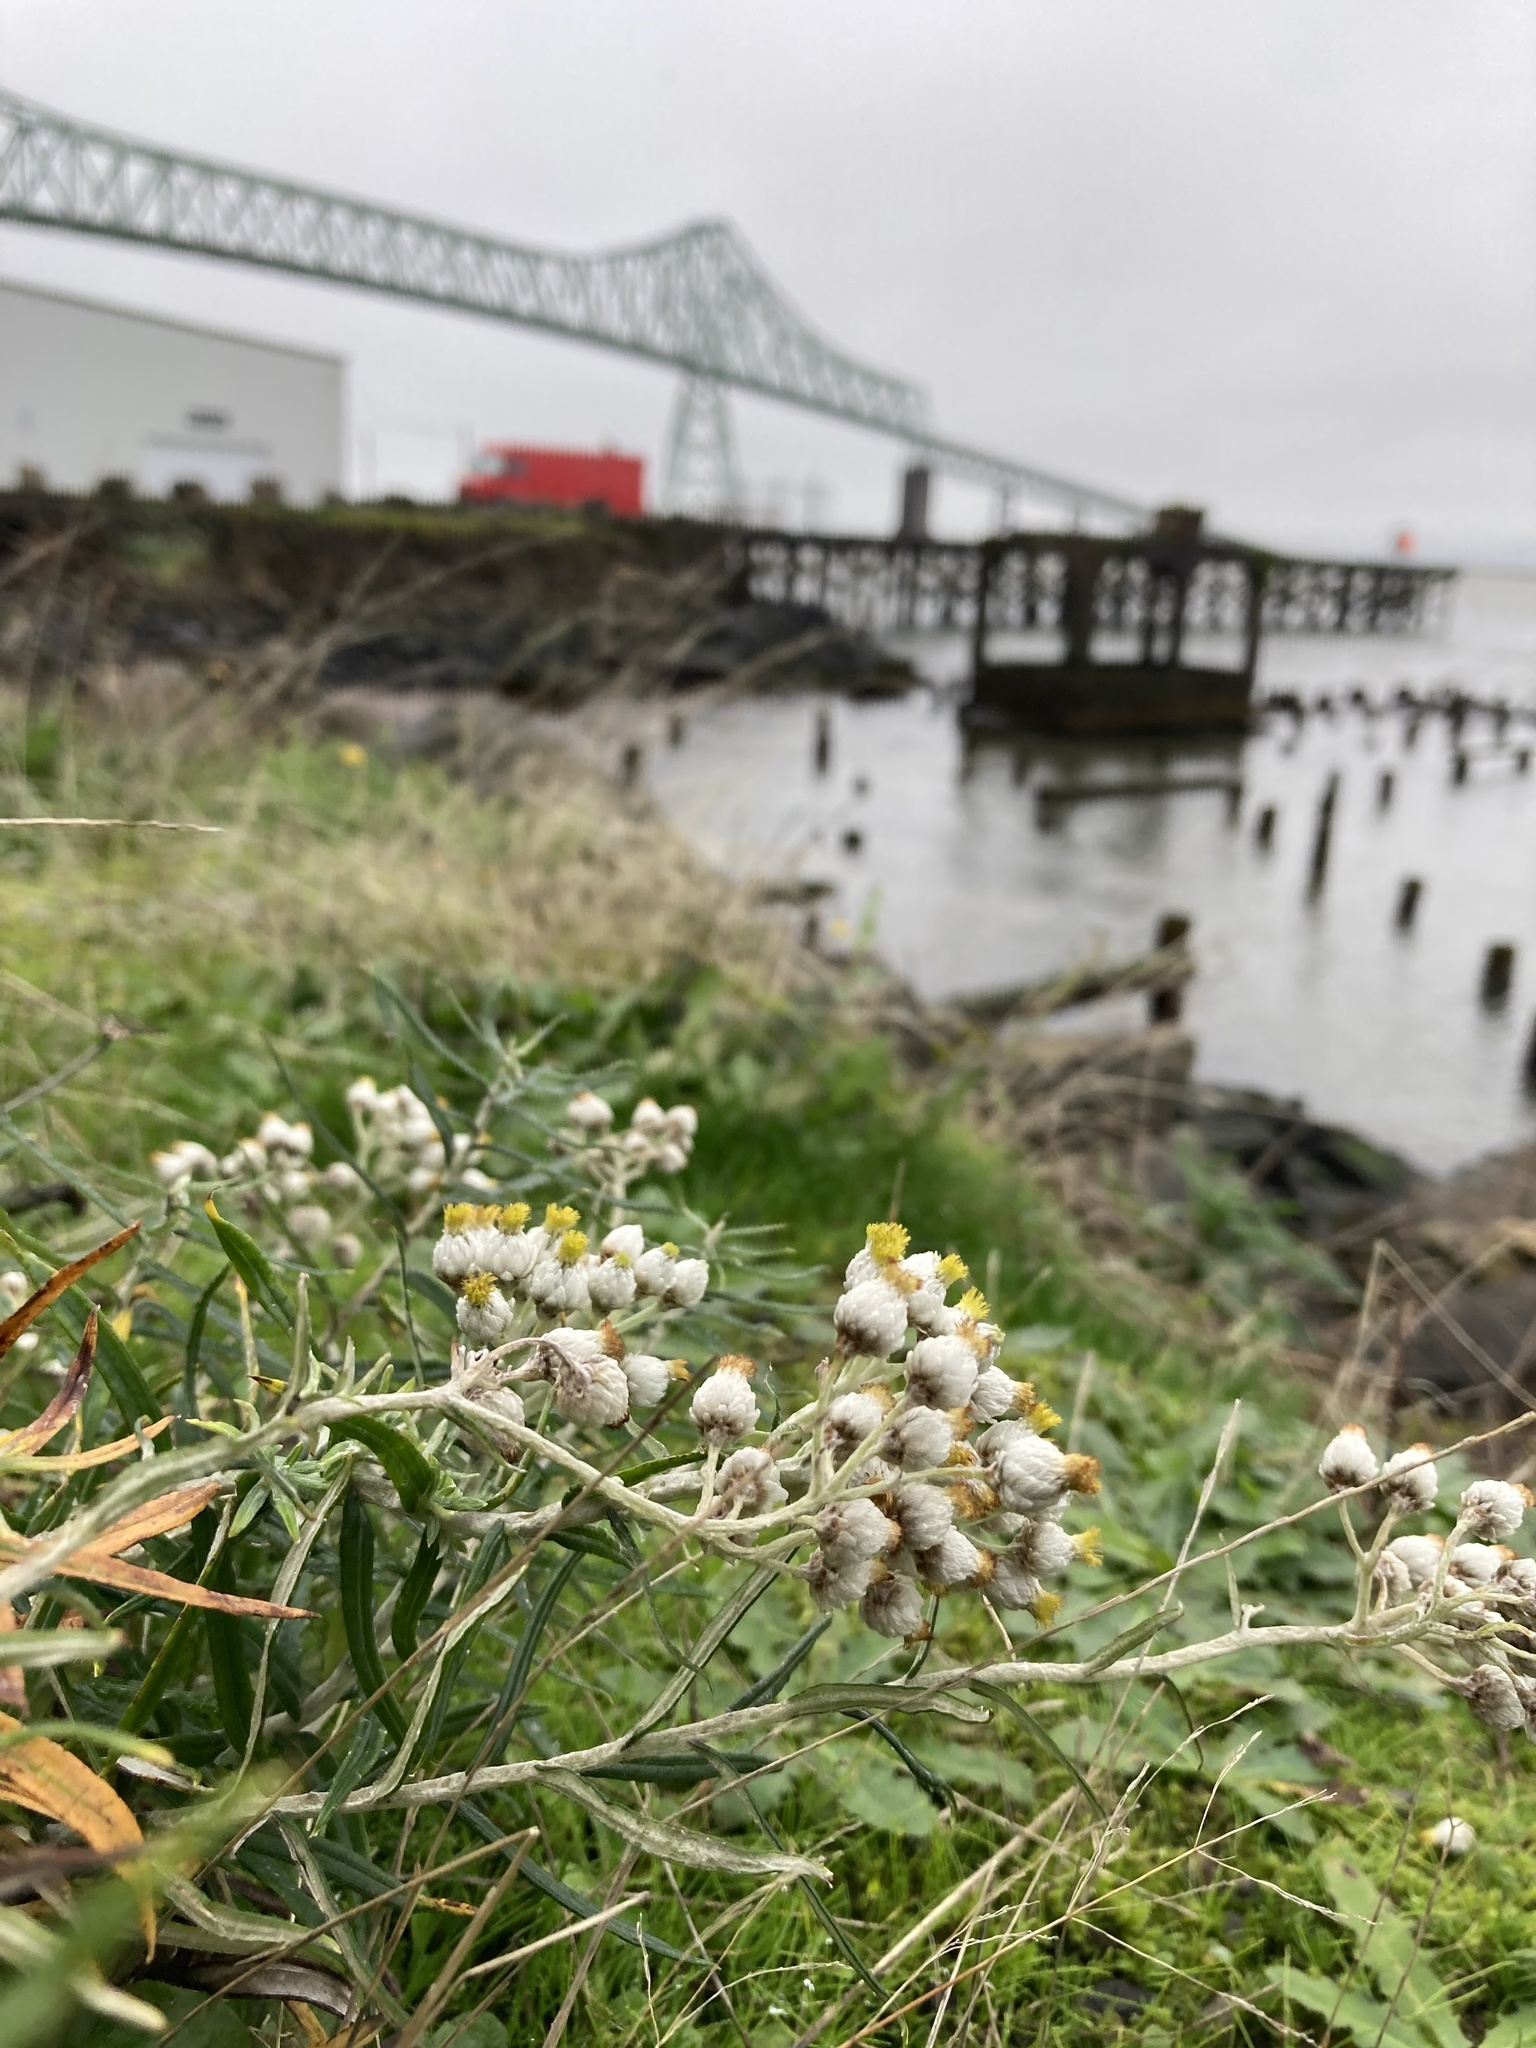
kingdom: Plantae
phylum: Tracheophyta
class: Magnoliopsida
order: Asterales
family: Asteraceae
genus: Anaphalis
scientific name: Anaphalis margaritacea
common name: Pearly everlasting
